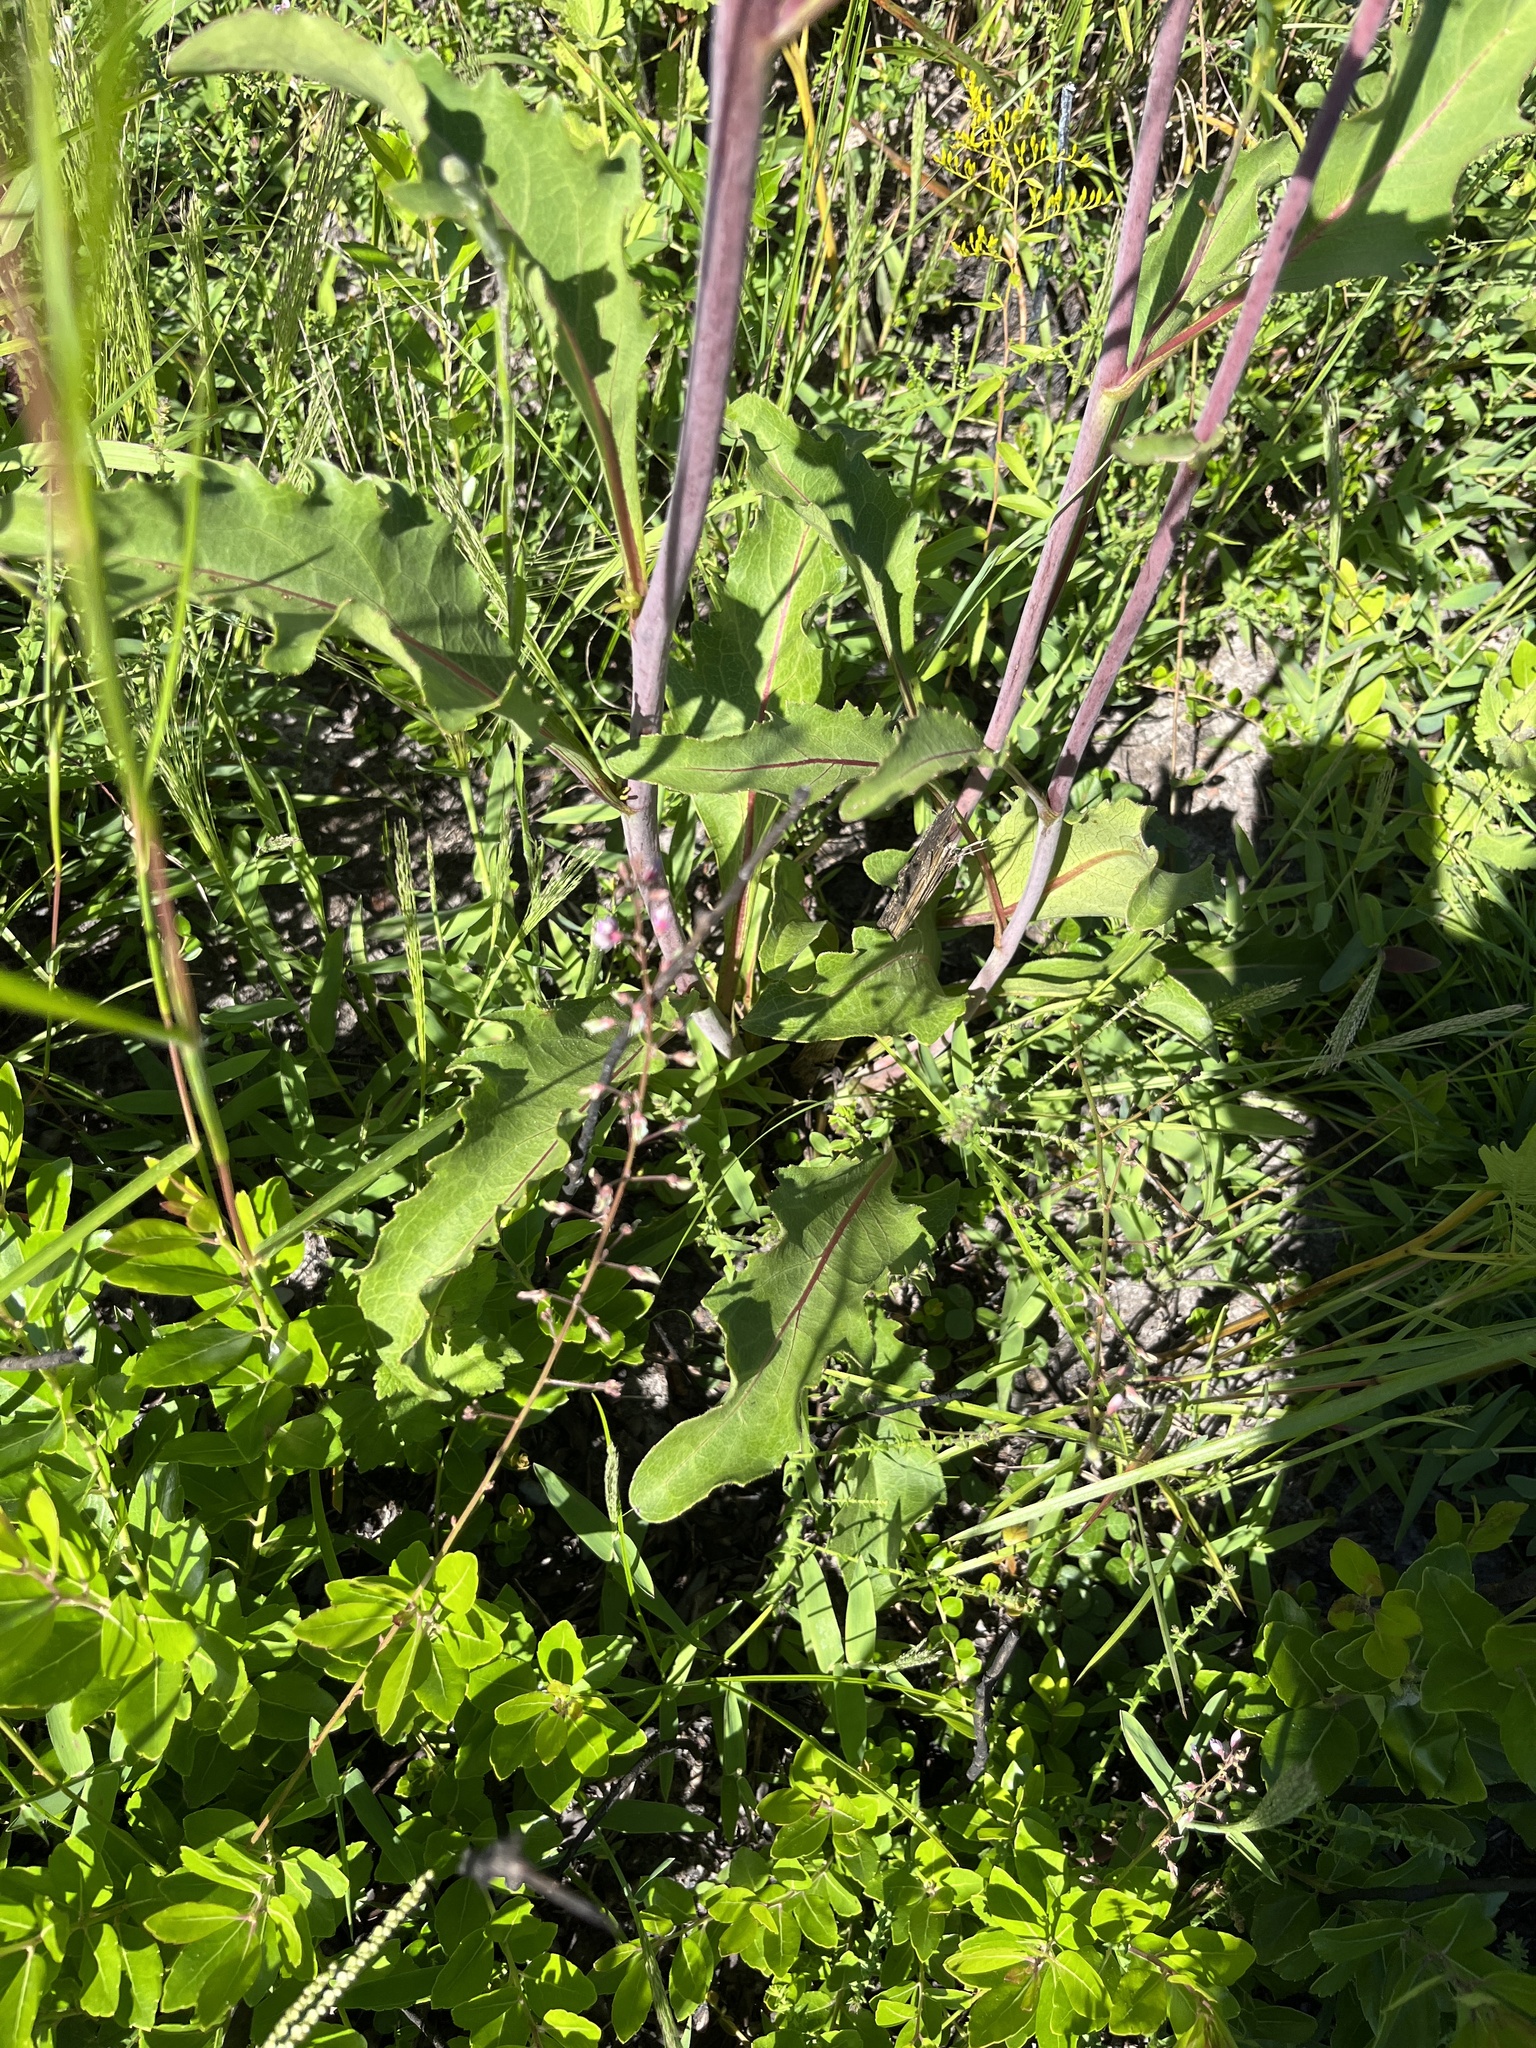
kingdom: Plantae
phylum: Tracheophyta
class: Magnoliopsida
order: Asterales
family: Asteraceae
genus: Silphium
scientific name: Silphium compositum
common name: Lesser basal-leaf rosinweed
